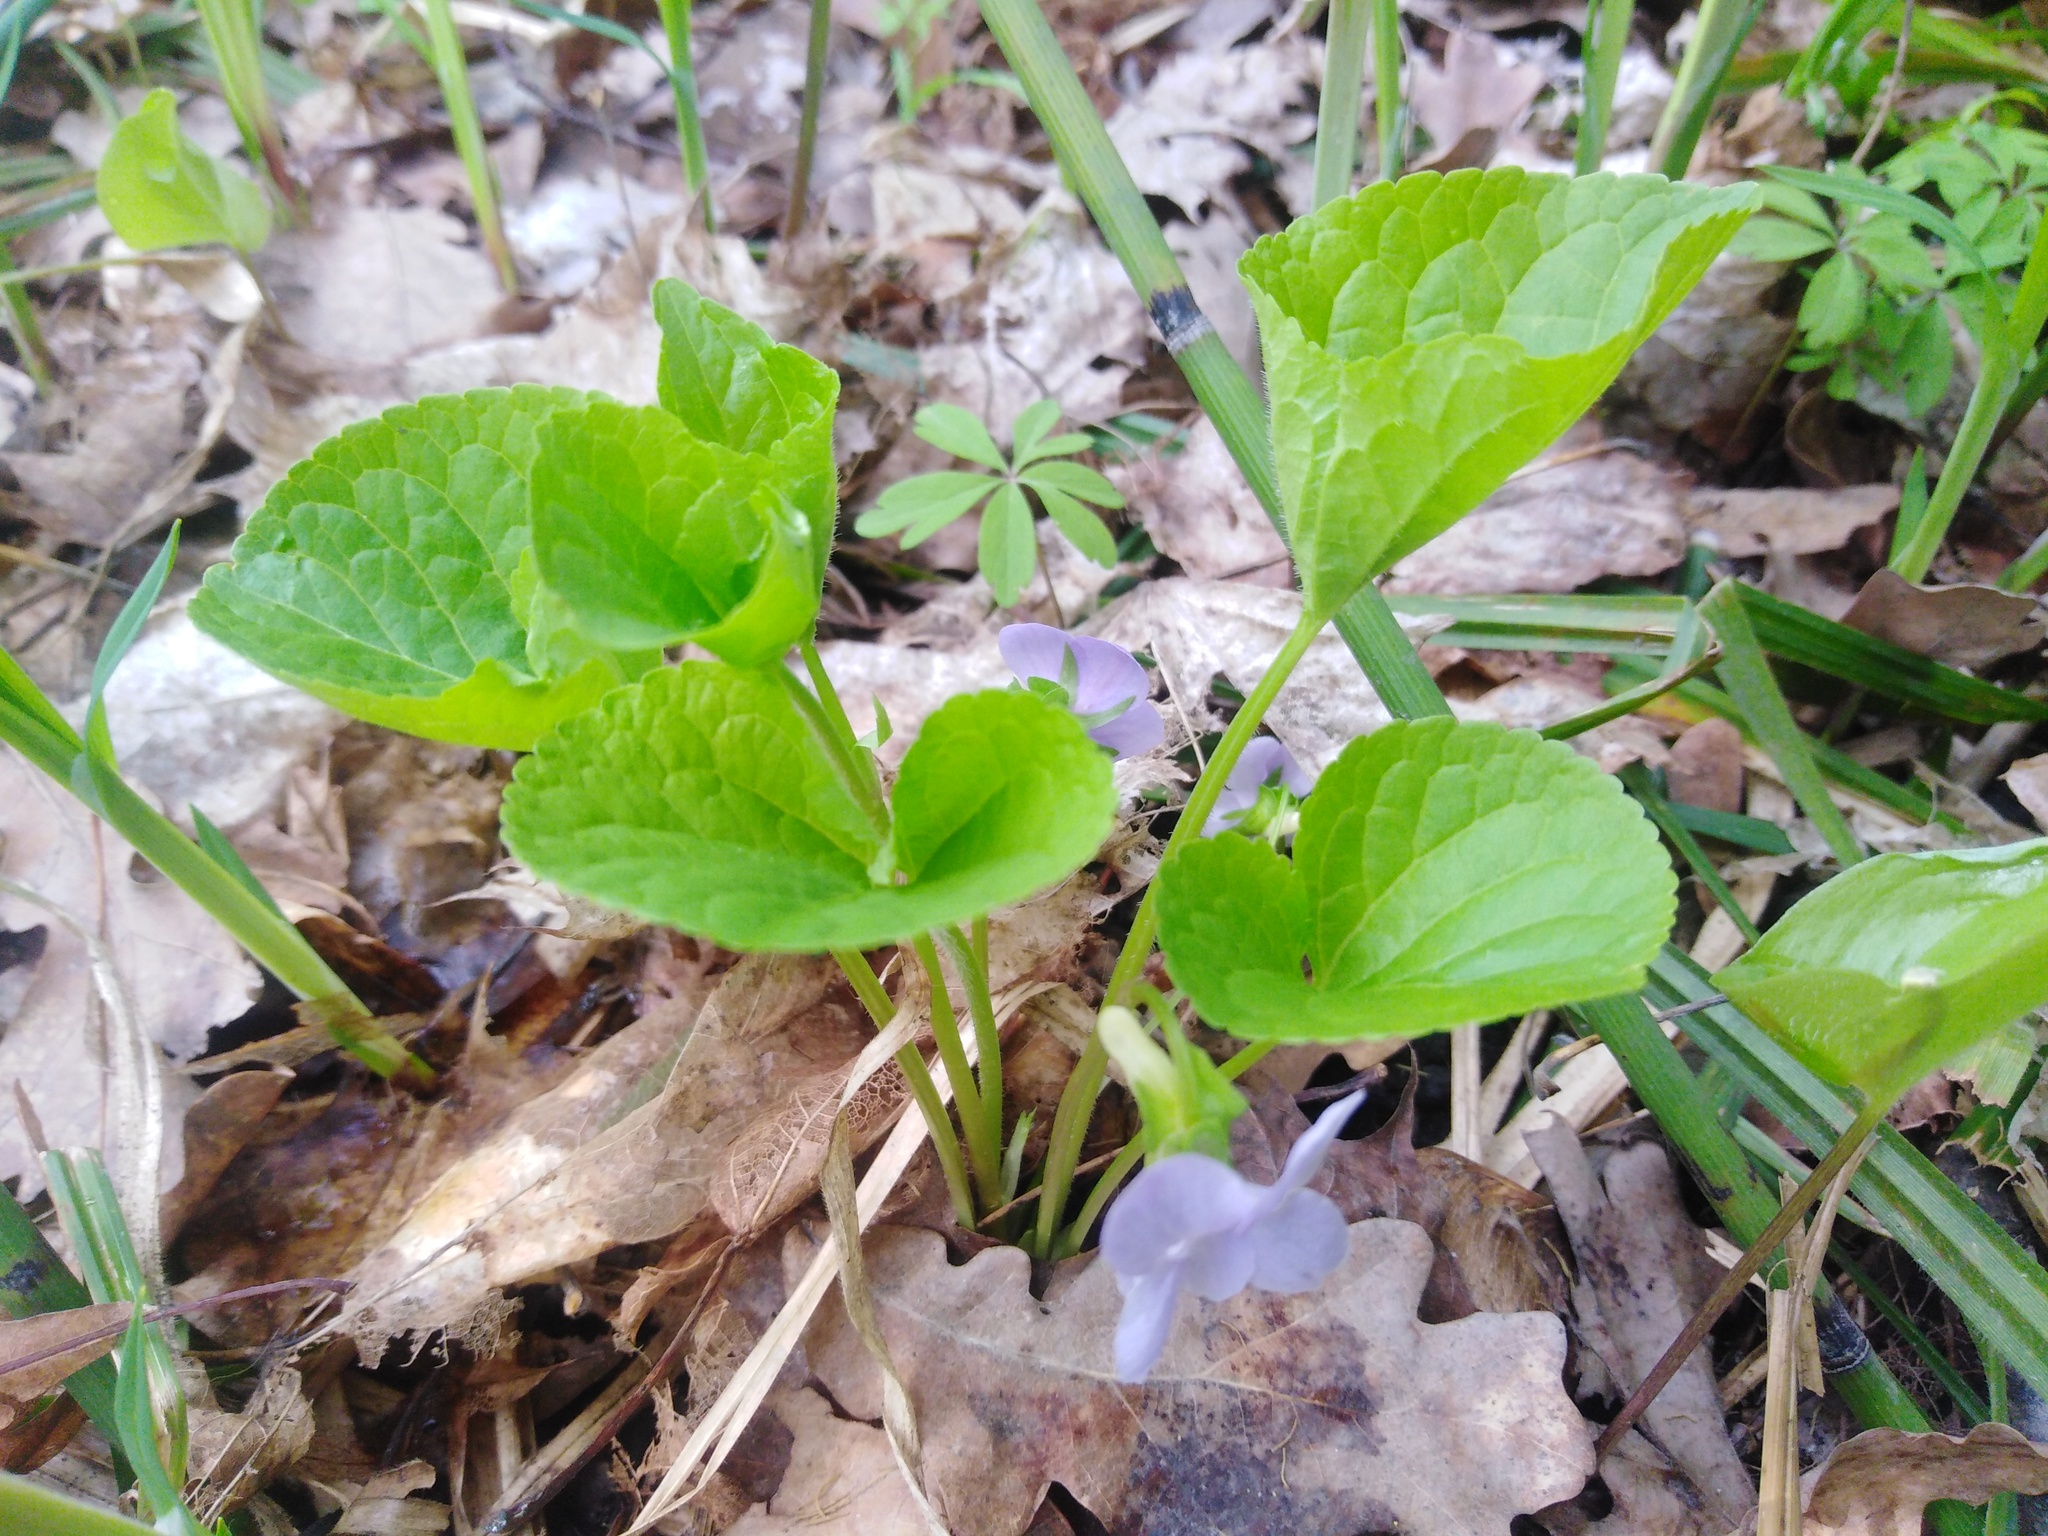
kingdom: Plantae
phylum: Tracheophyta
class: Magnoliopsida
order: Malpighiales
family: Violaceae
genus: Viola
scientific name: Viola mirabilis
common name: Wonder violet
